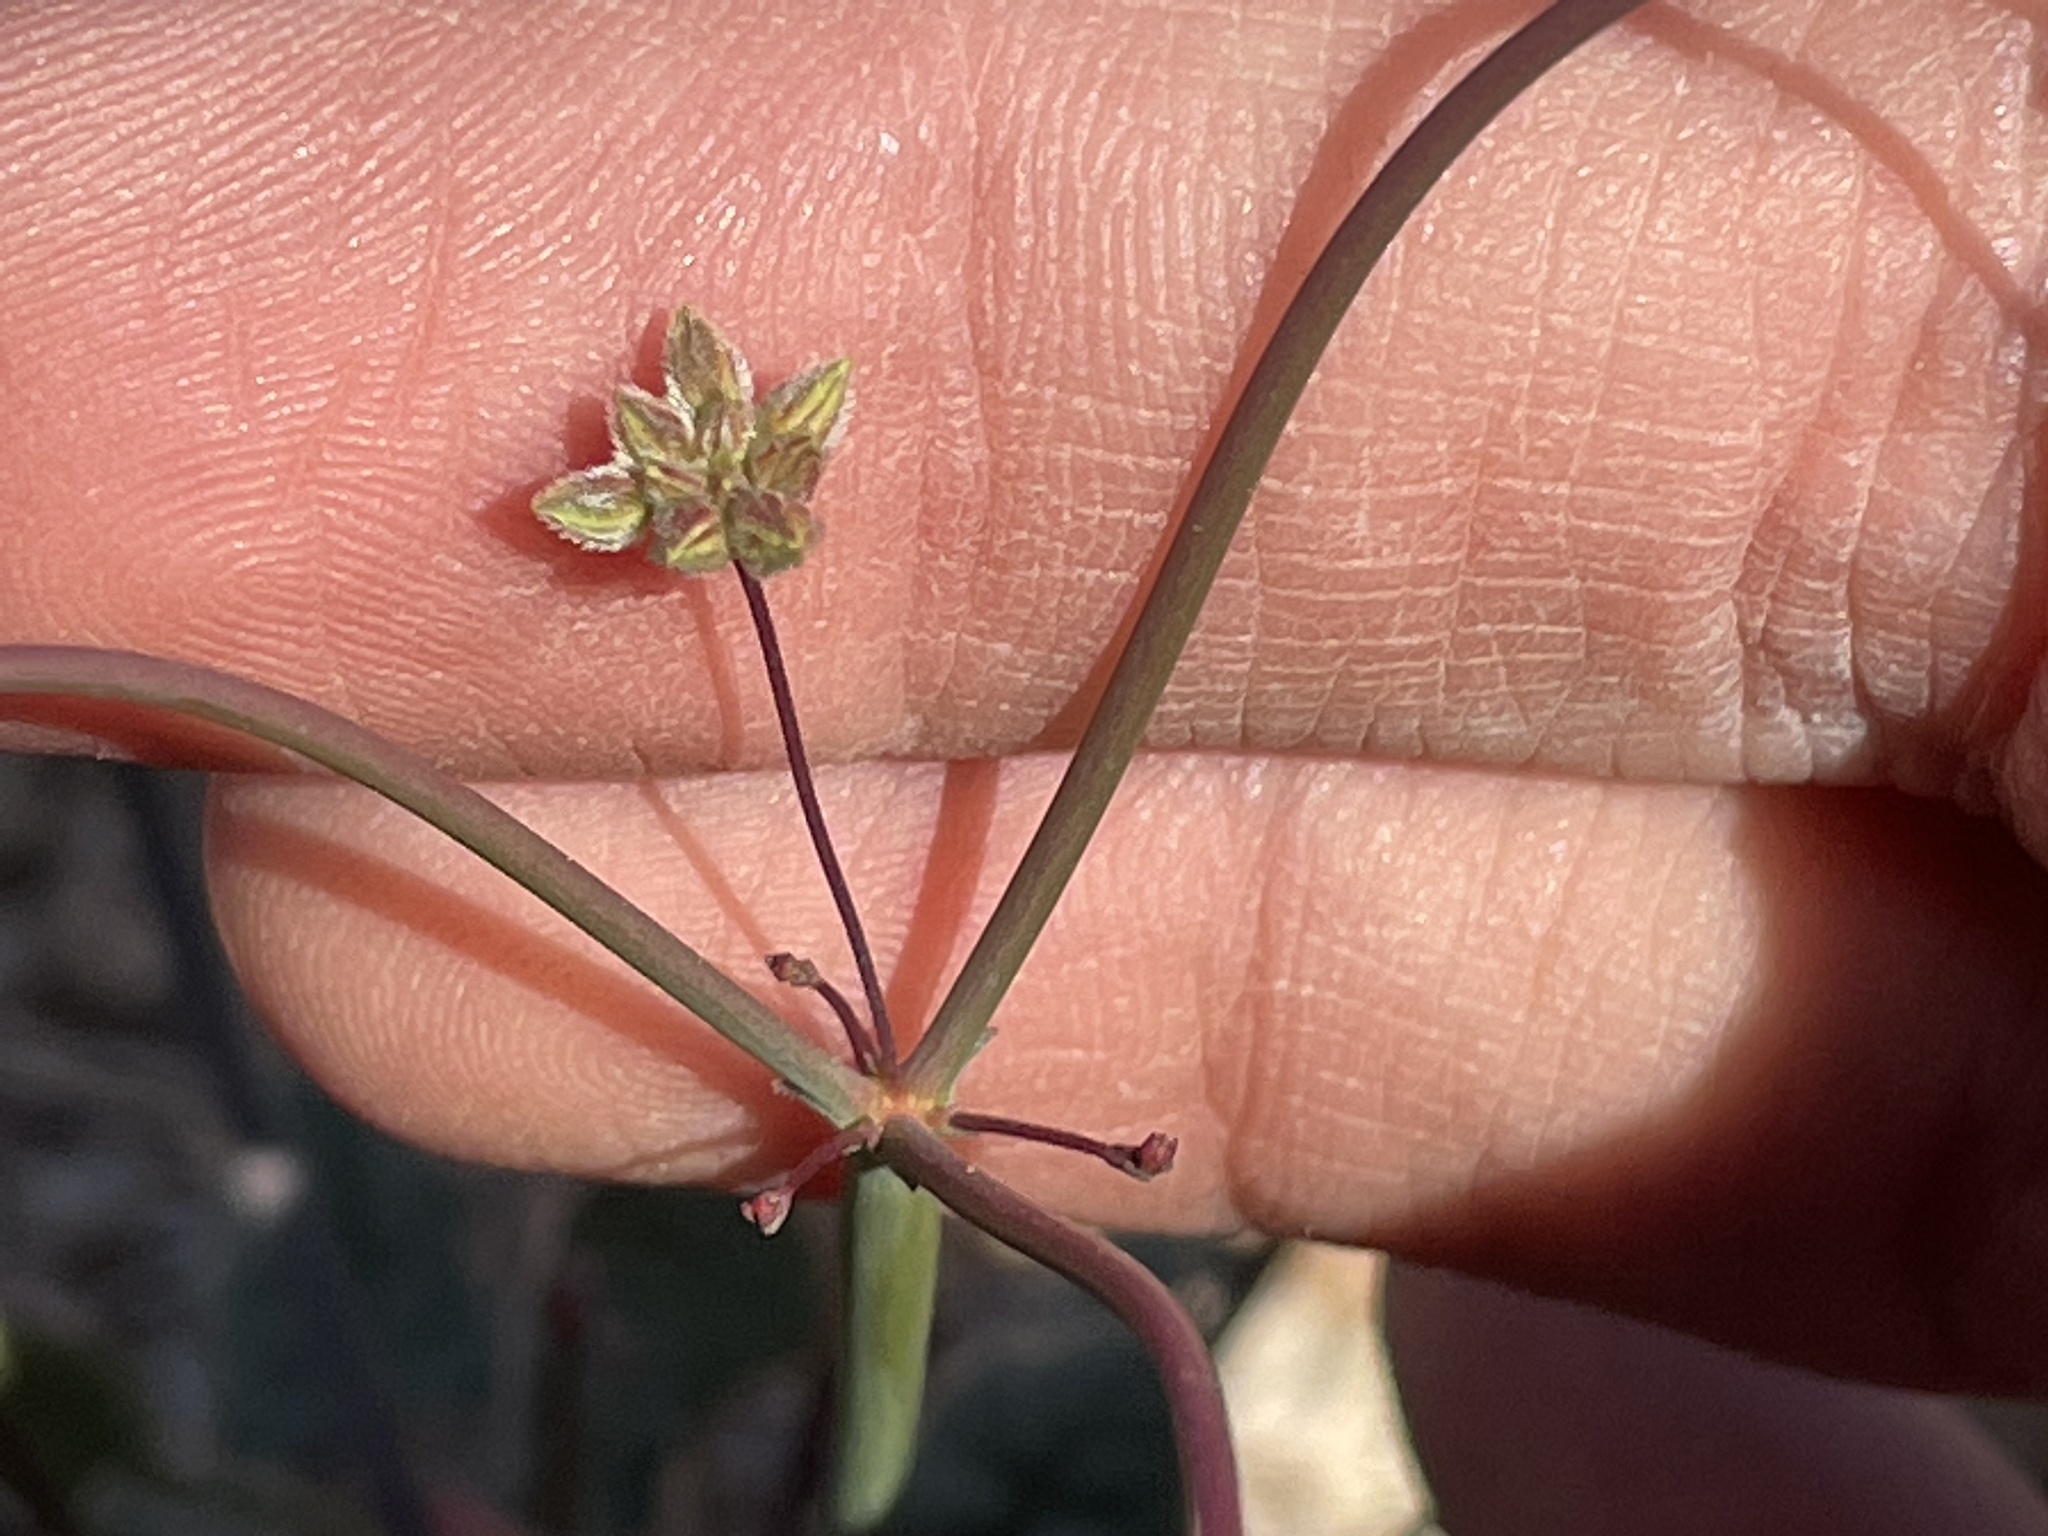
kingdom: Plantae
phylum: Tracheophyta
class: Magnoliopsida
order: Caryophyllales
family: Polygonaceae
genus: Eriogonum
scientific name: Eriogonum inflatum
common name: Desert trumpet
